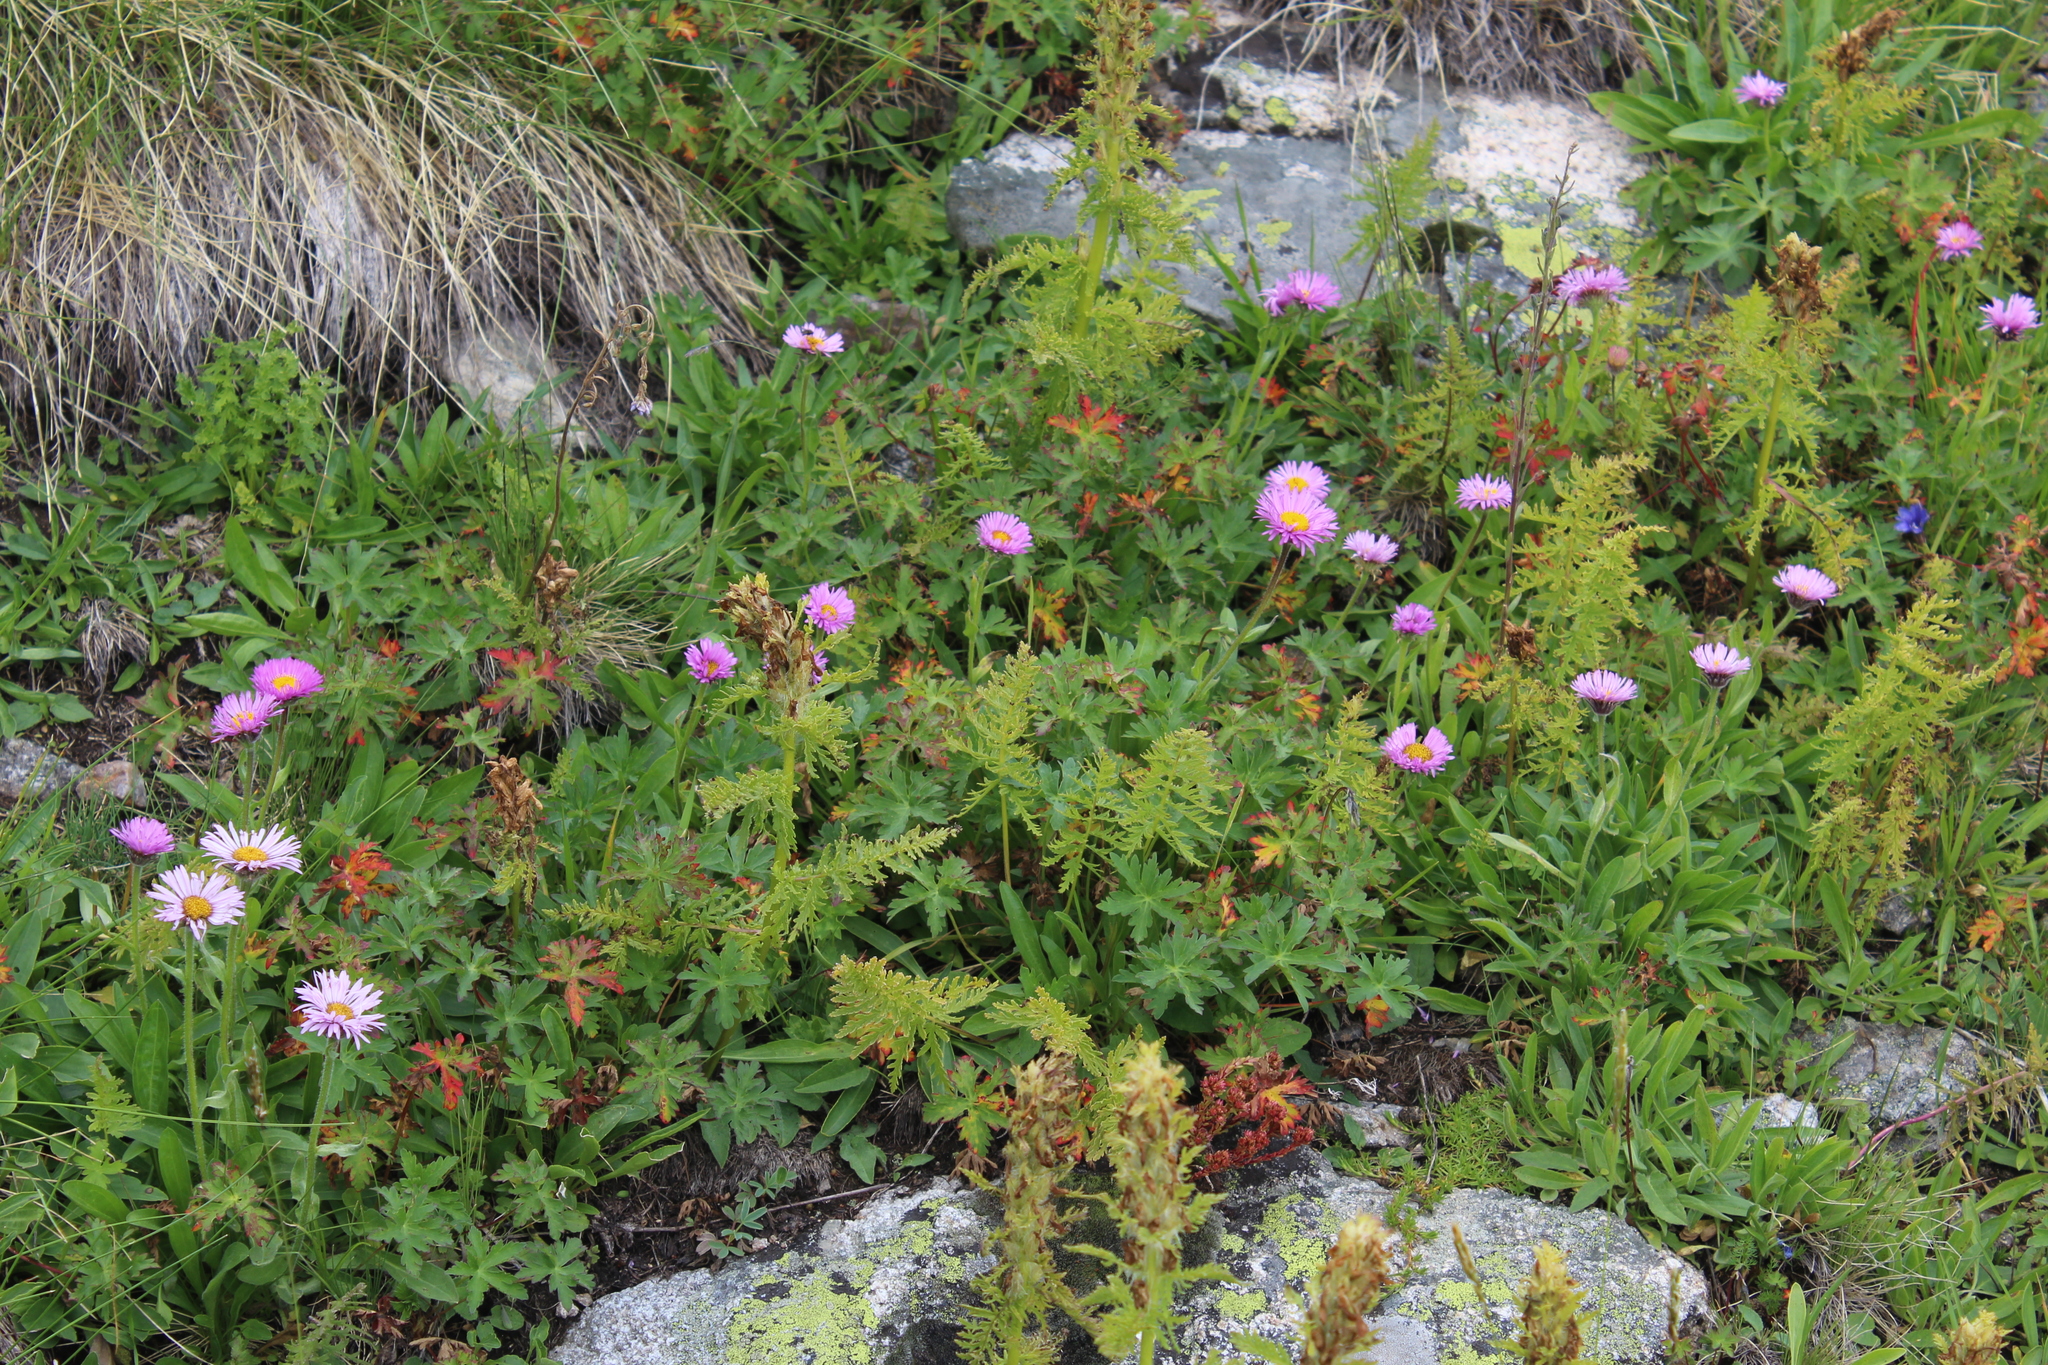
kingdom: Plantae
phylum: Tracheophyta
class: Magnoliopsida
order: Asterales
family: Asteraceae
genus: Erigeron
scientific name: Erigeron caucasicus
